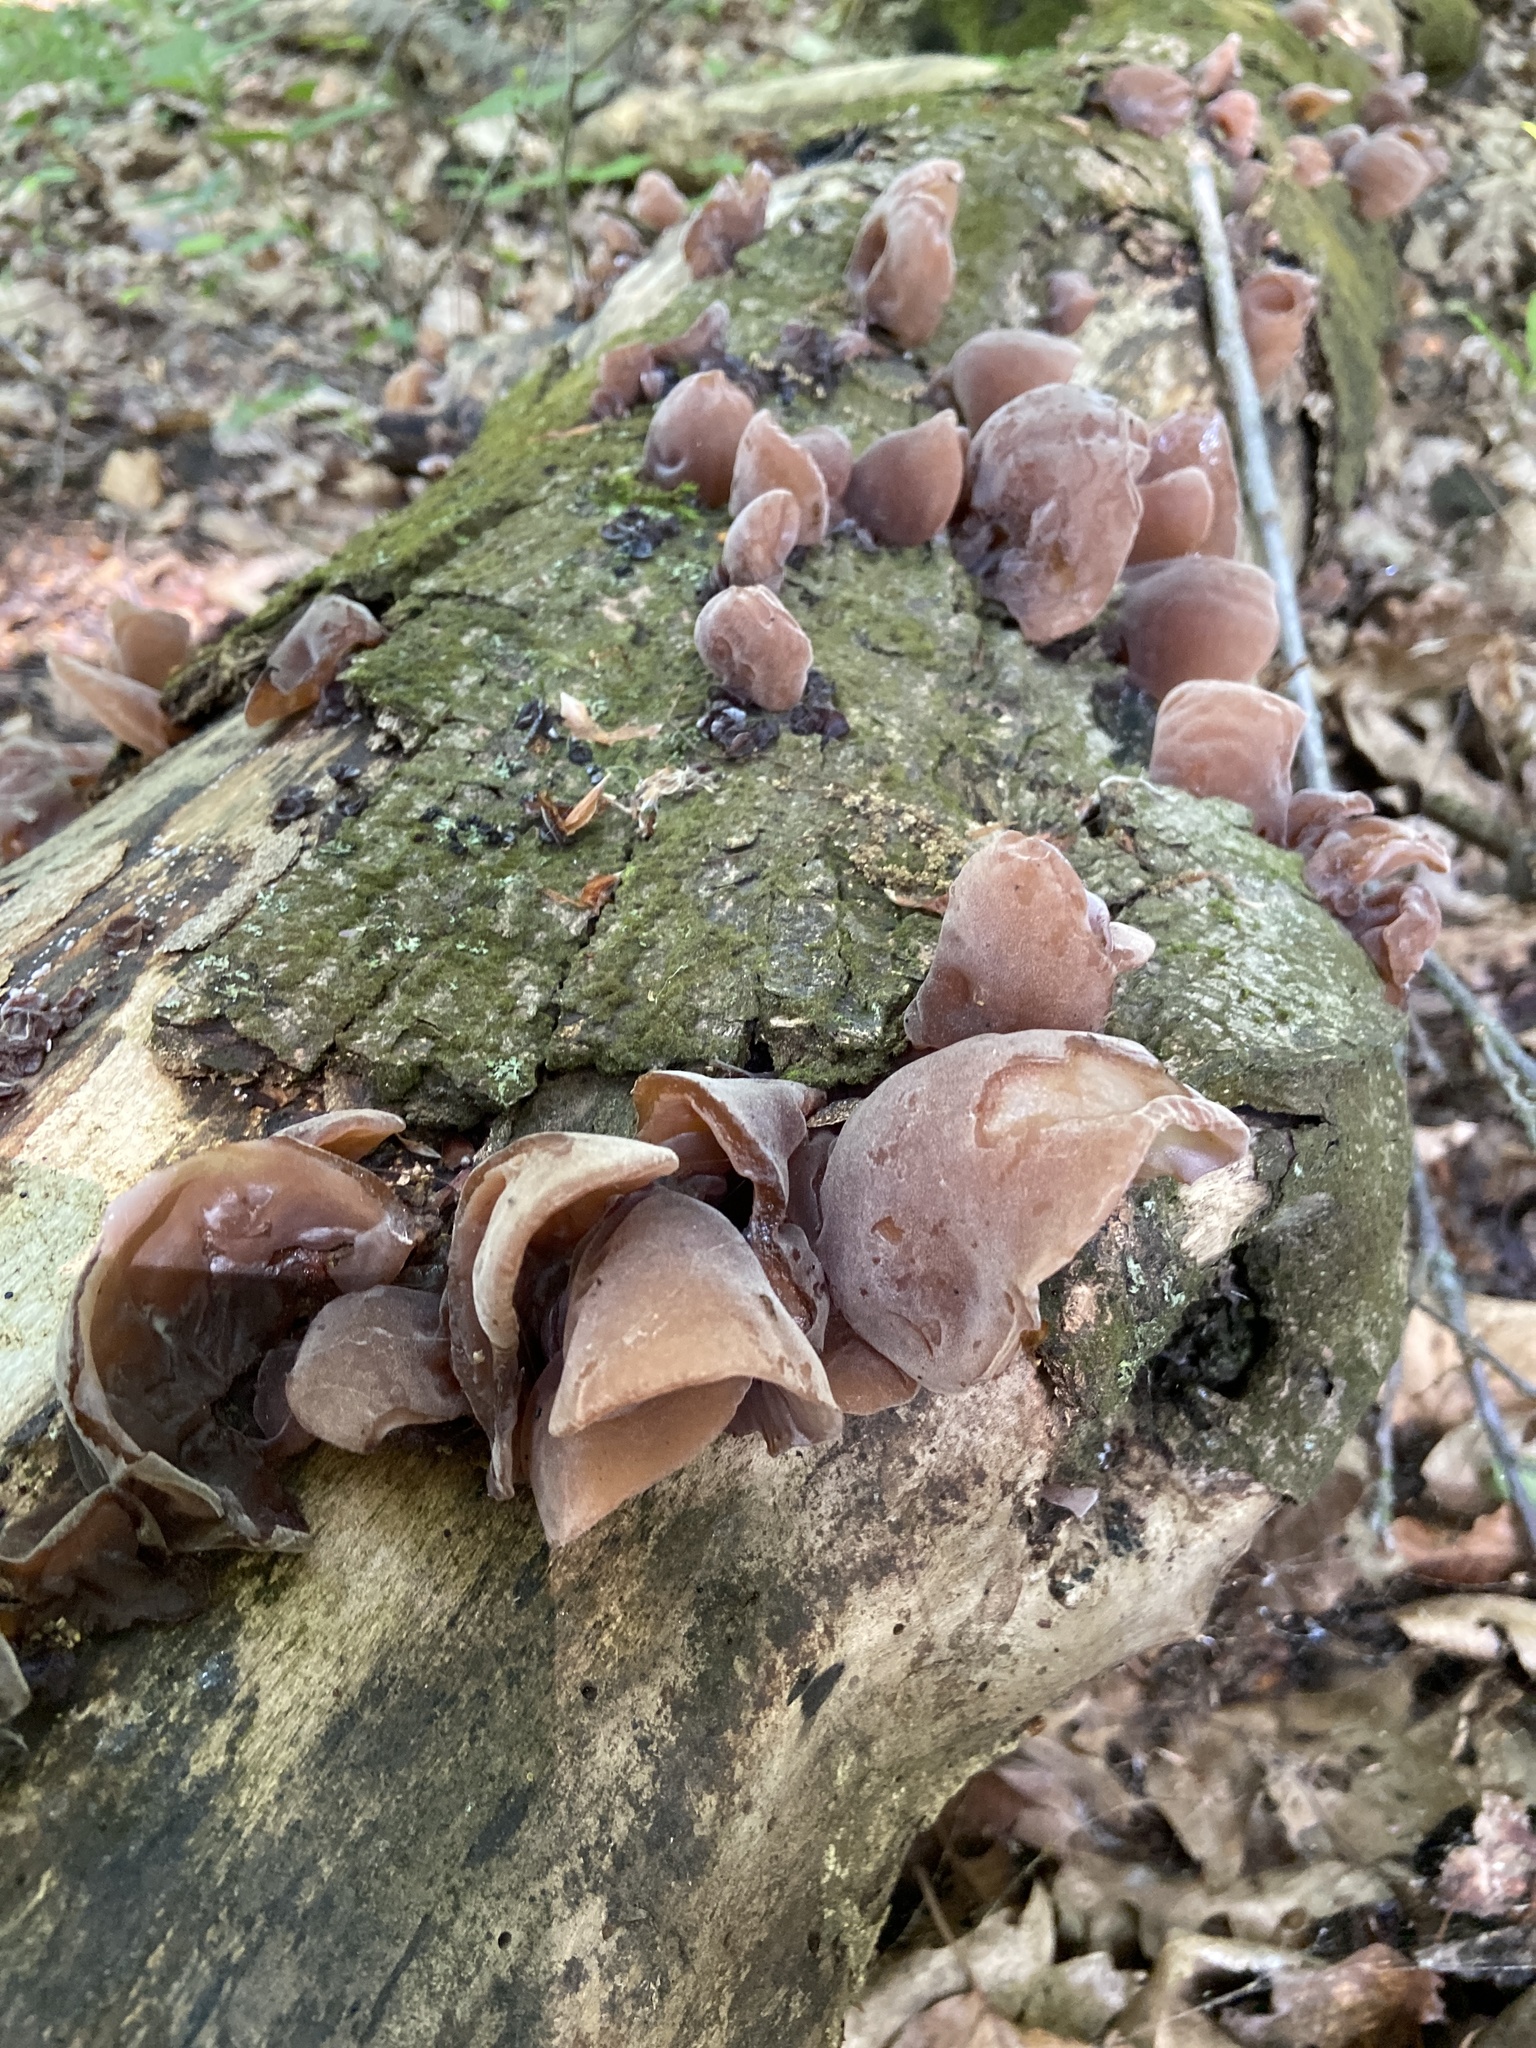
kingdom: Fungi
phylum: Basidiomycota
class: Agaricomycetes
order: Auriculariales
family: Auriculariaceae
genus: Auricularia
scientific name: Auricularia auricula-judae
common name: Jelly ear
